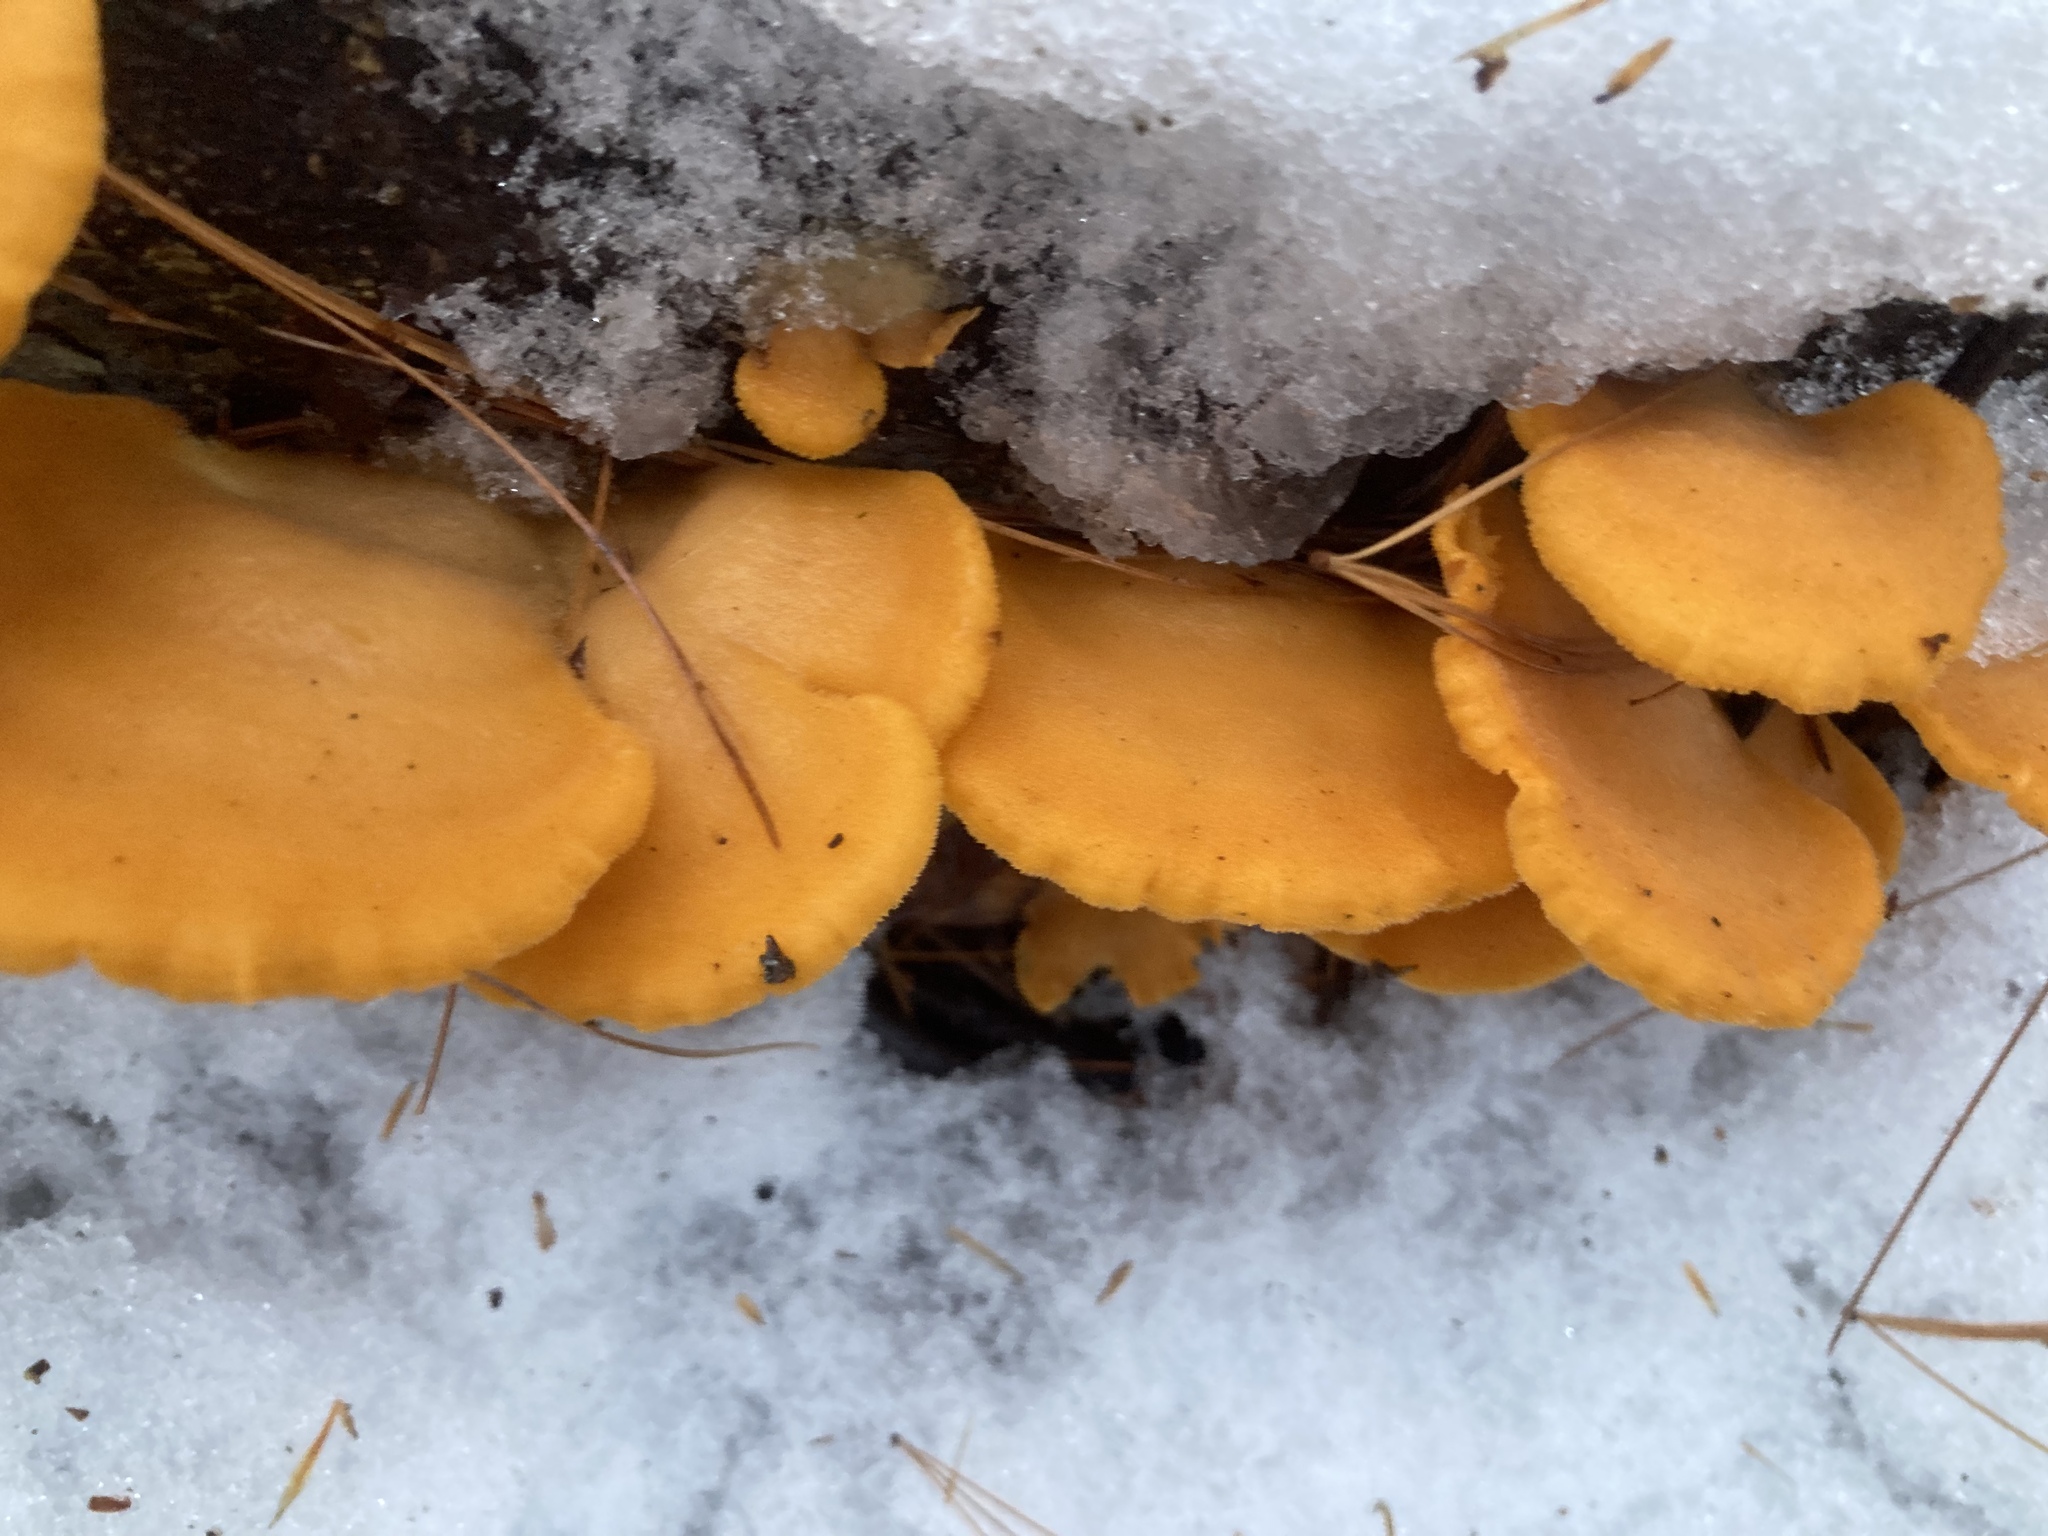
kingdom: Fungi
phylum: Basidiomycota
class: Agaricomycetes
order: Agaricales
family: Phyllotopsidaceae
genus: Phyllotopsis
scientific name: Phyllotopsis nidulans
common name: Orange mock oyster
